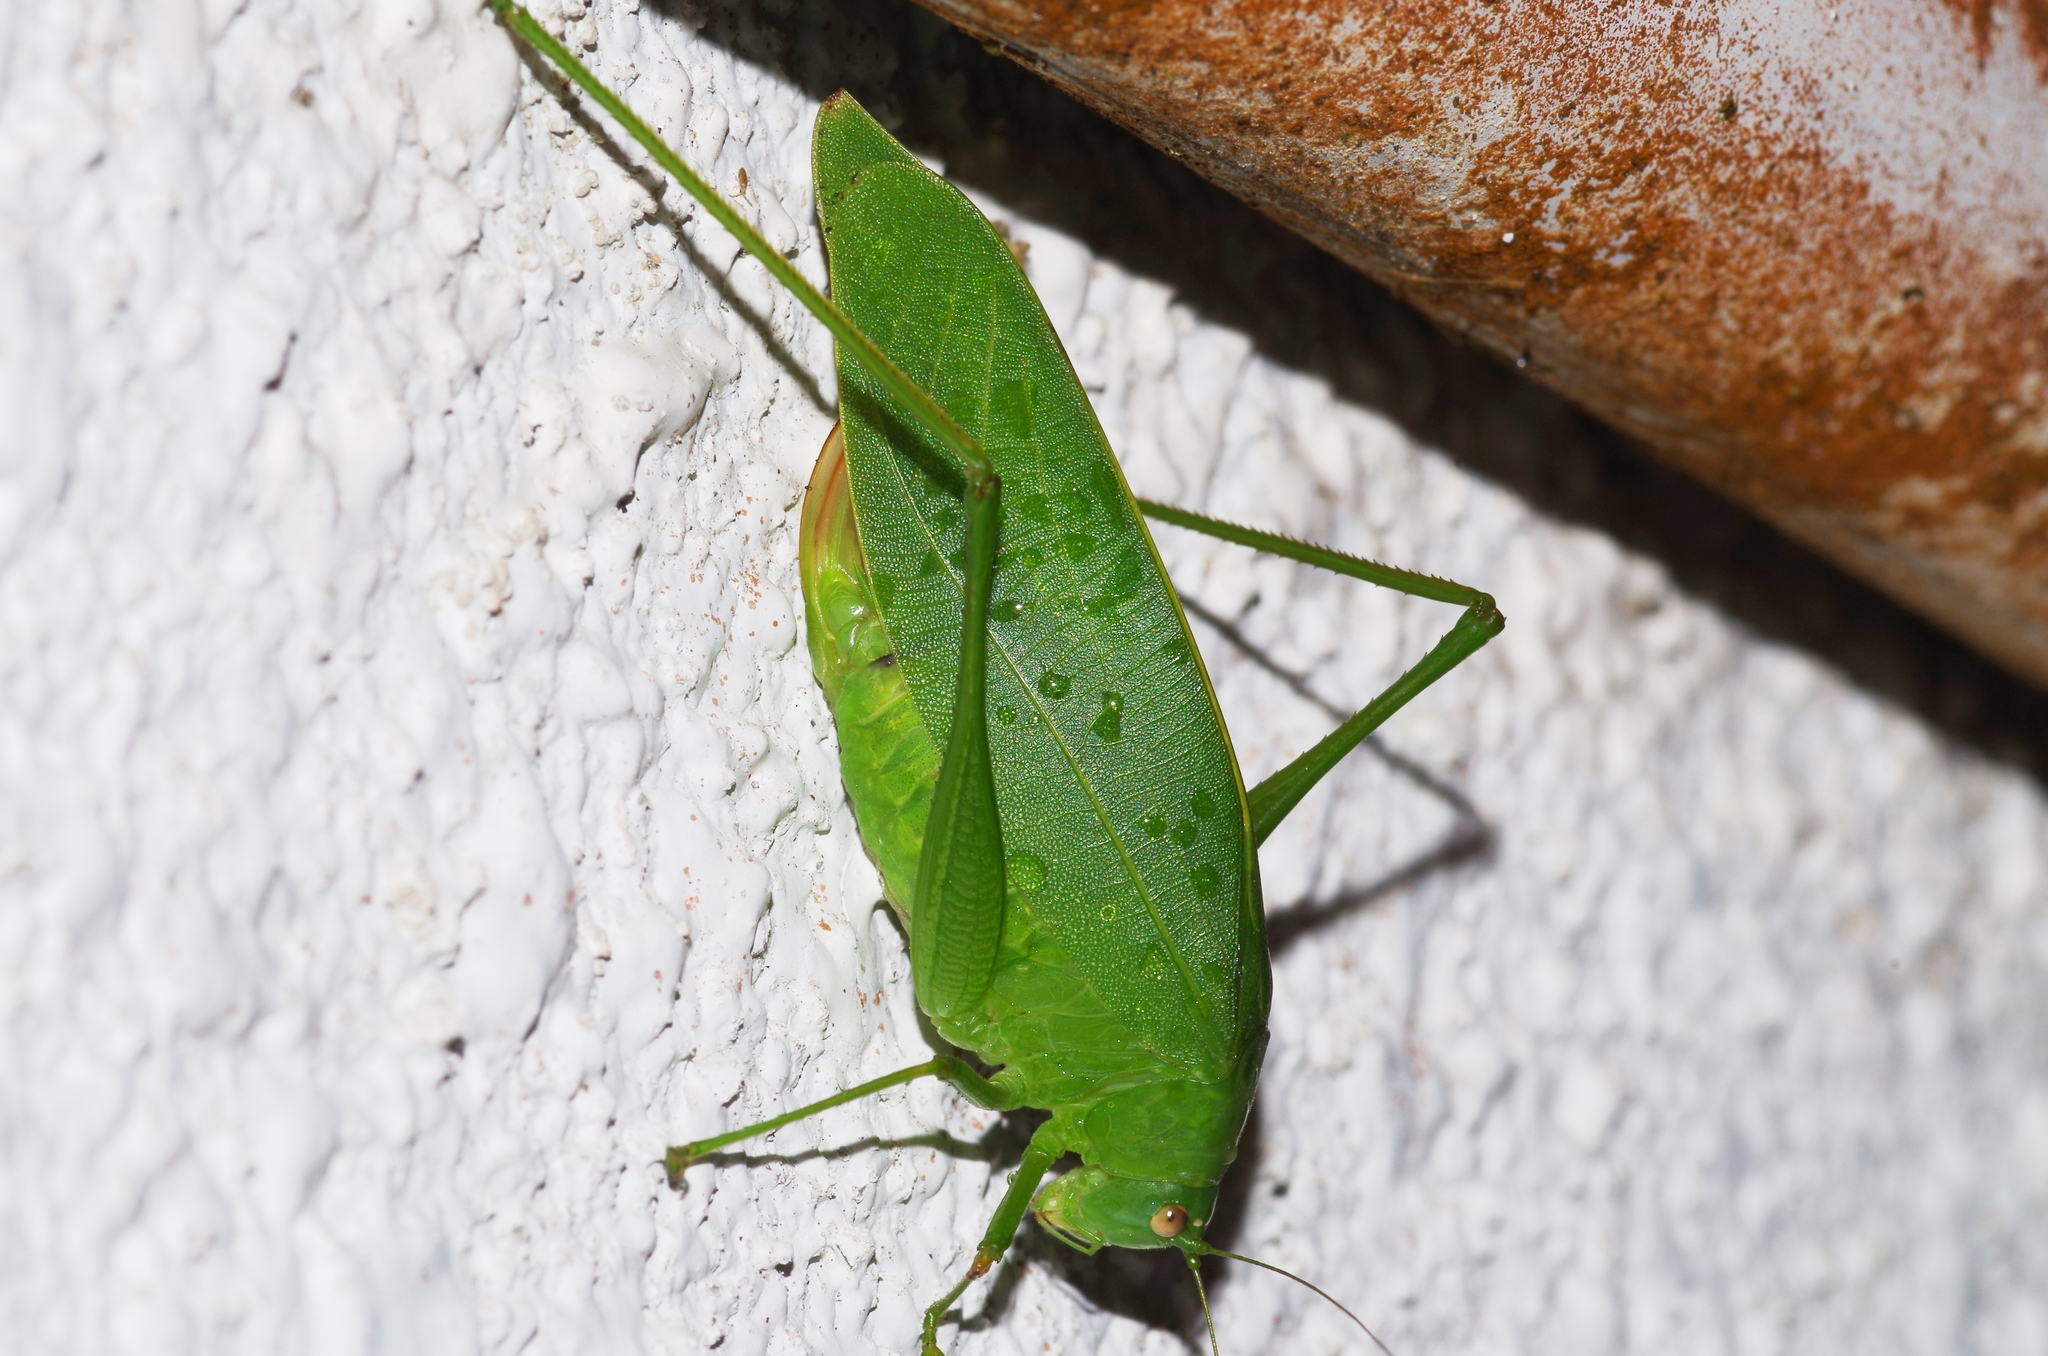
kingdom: Animalia
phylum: Arthropoda
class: Insecta
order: Orthoptera
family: Tettigoniidae
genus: Phaulula
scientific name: Phaulula daitoensis
